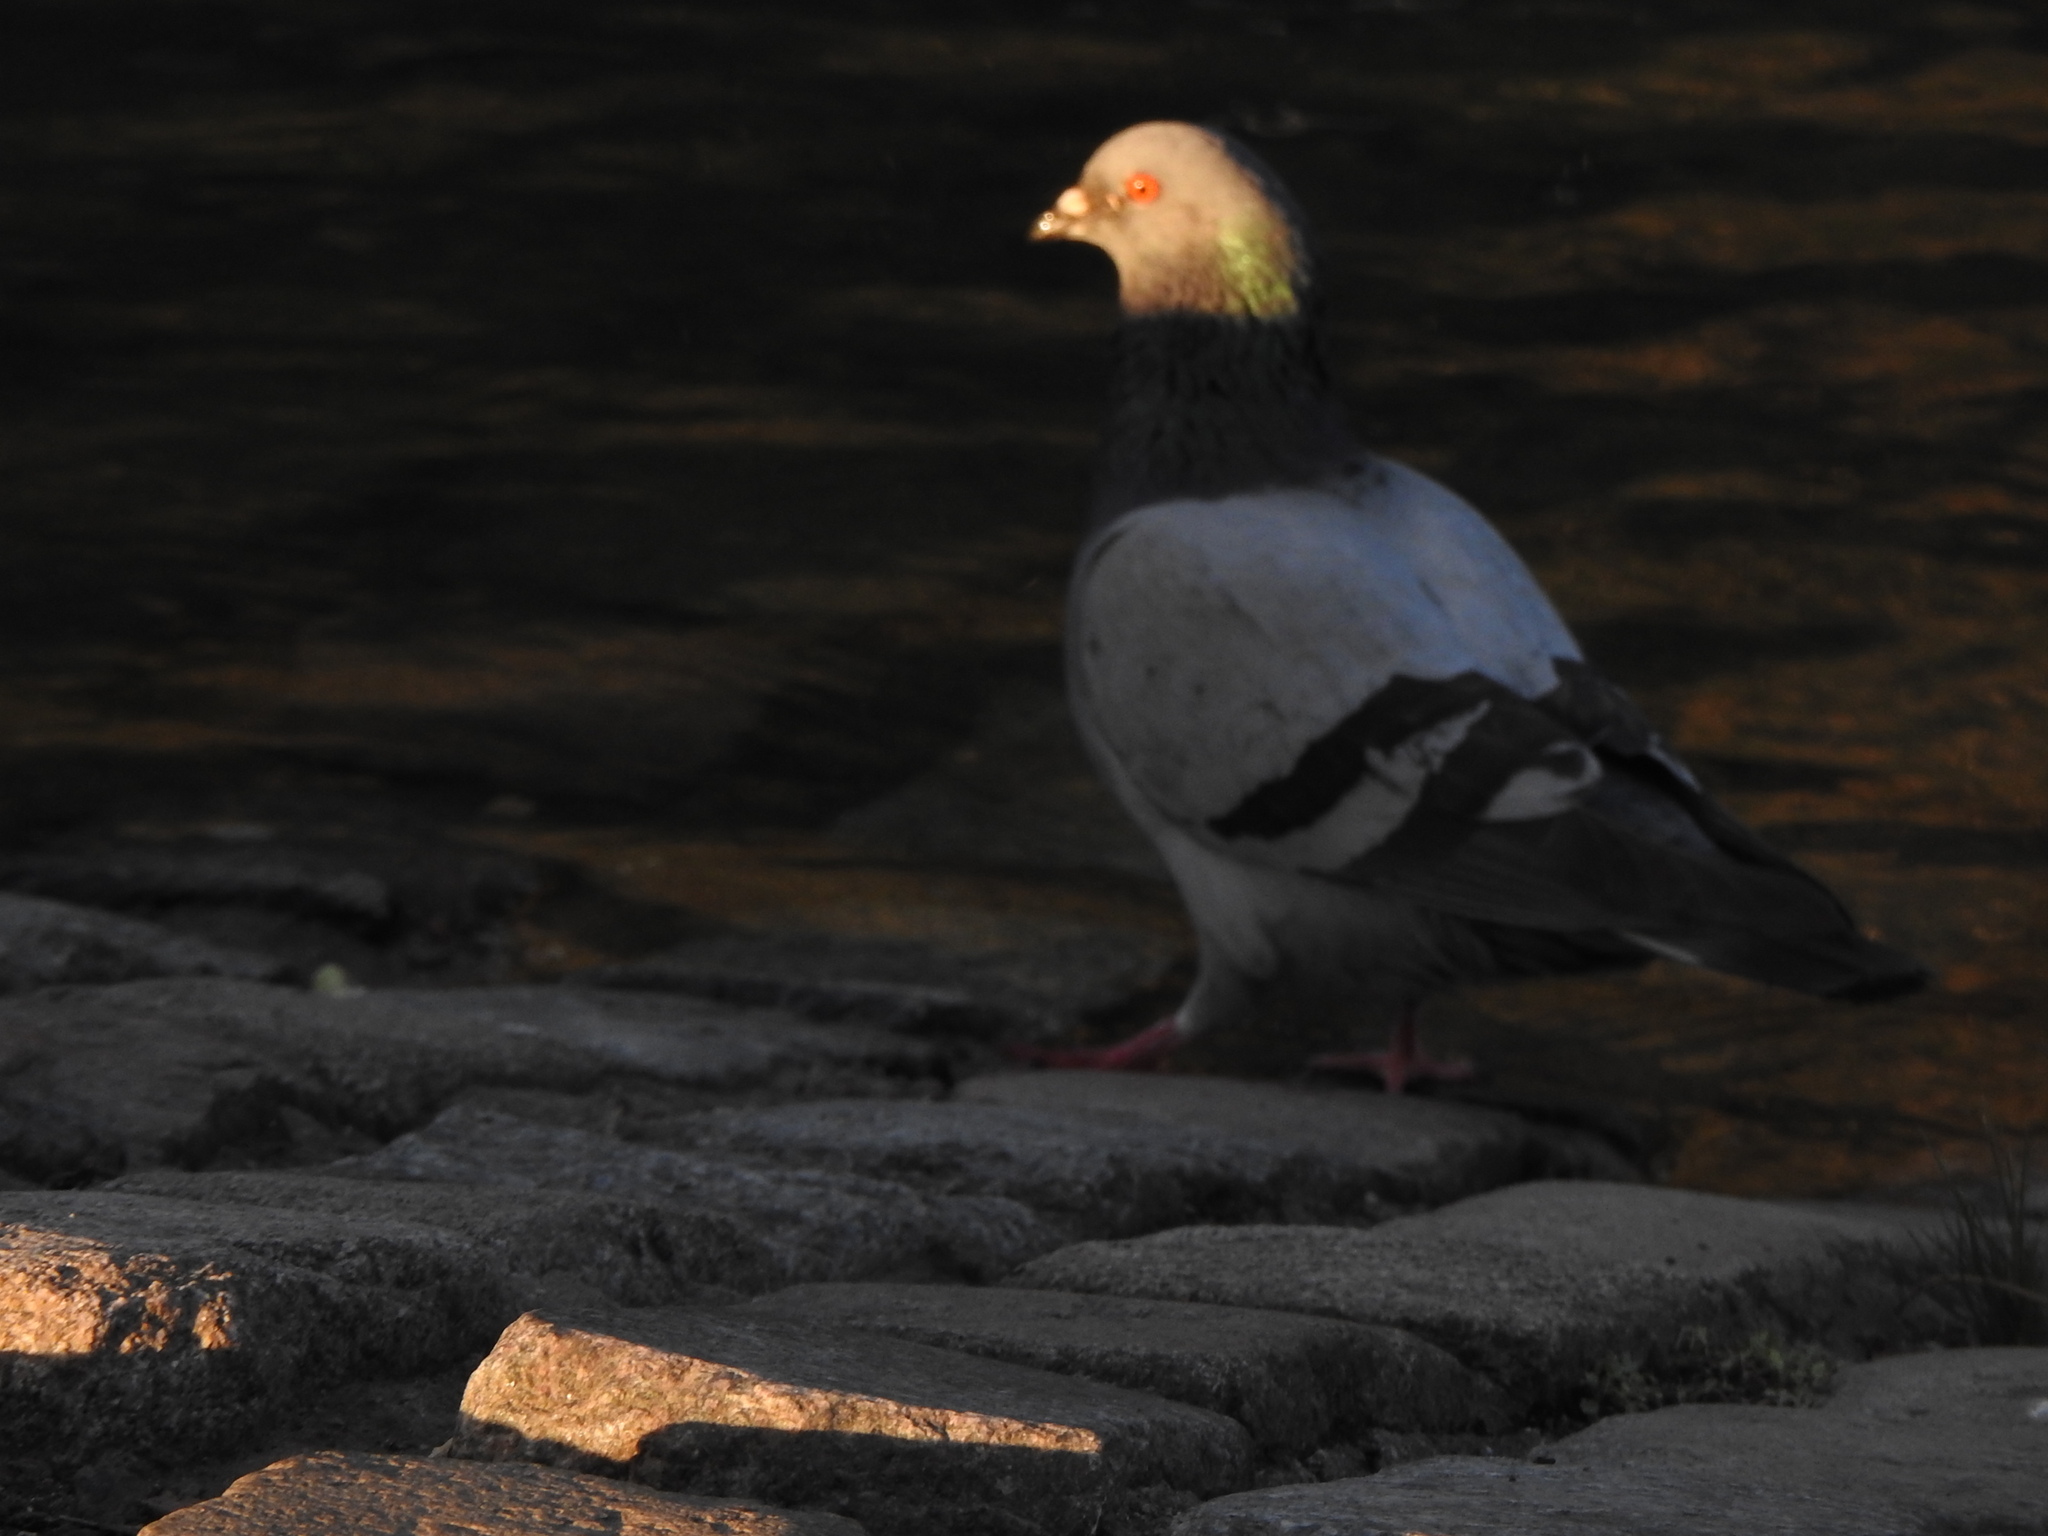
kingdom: Animalia
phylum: Chordata
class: Aves
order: Columbiformes
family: Columbidae
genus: Columba
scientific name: Columba livia
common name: Rock pigeon
